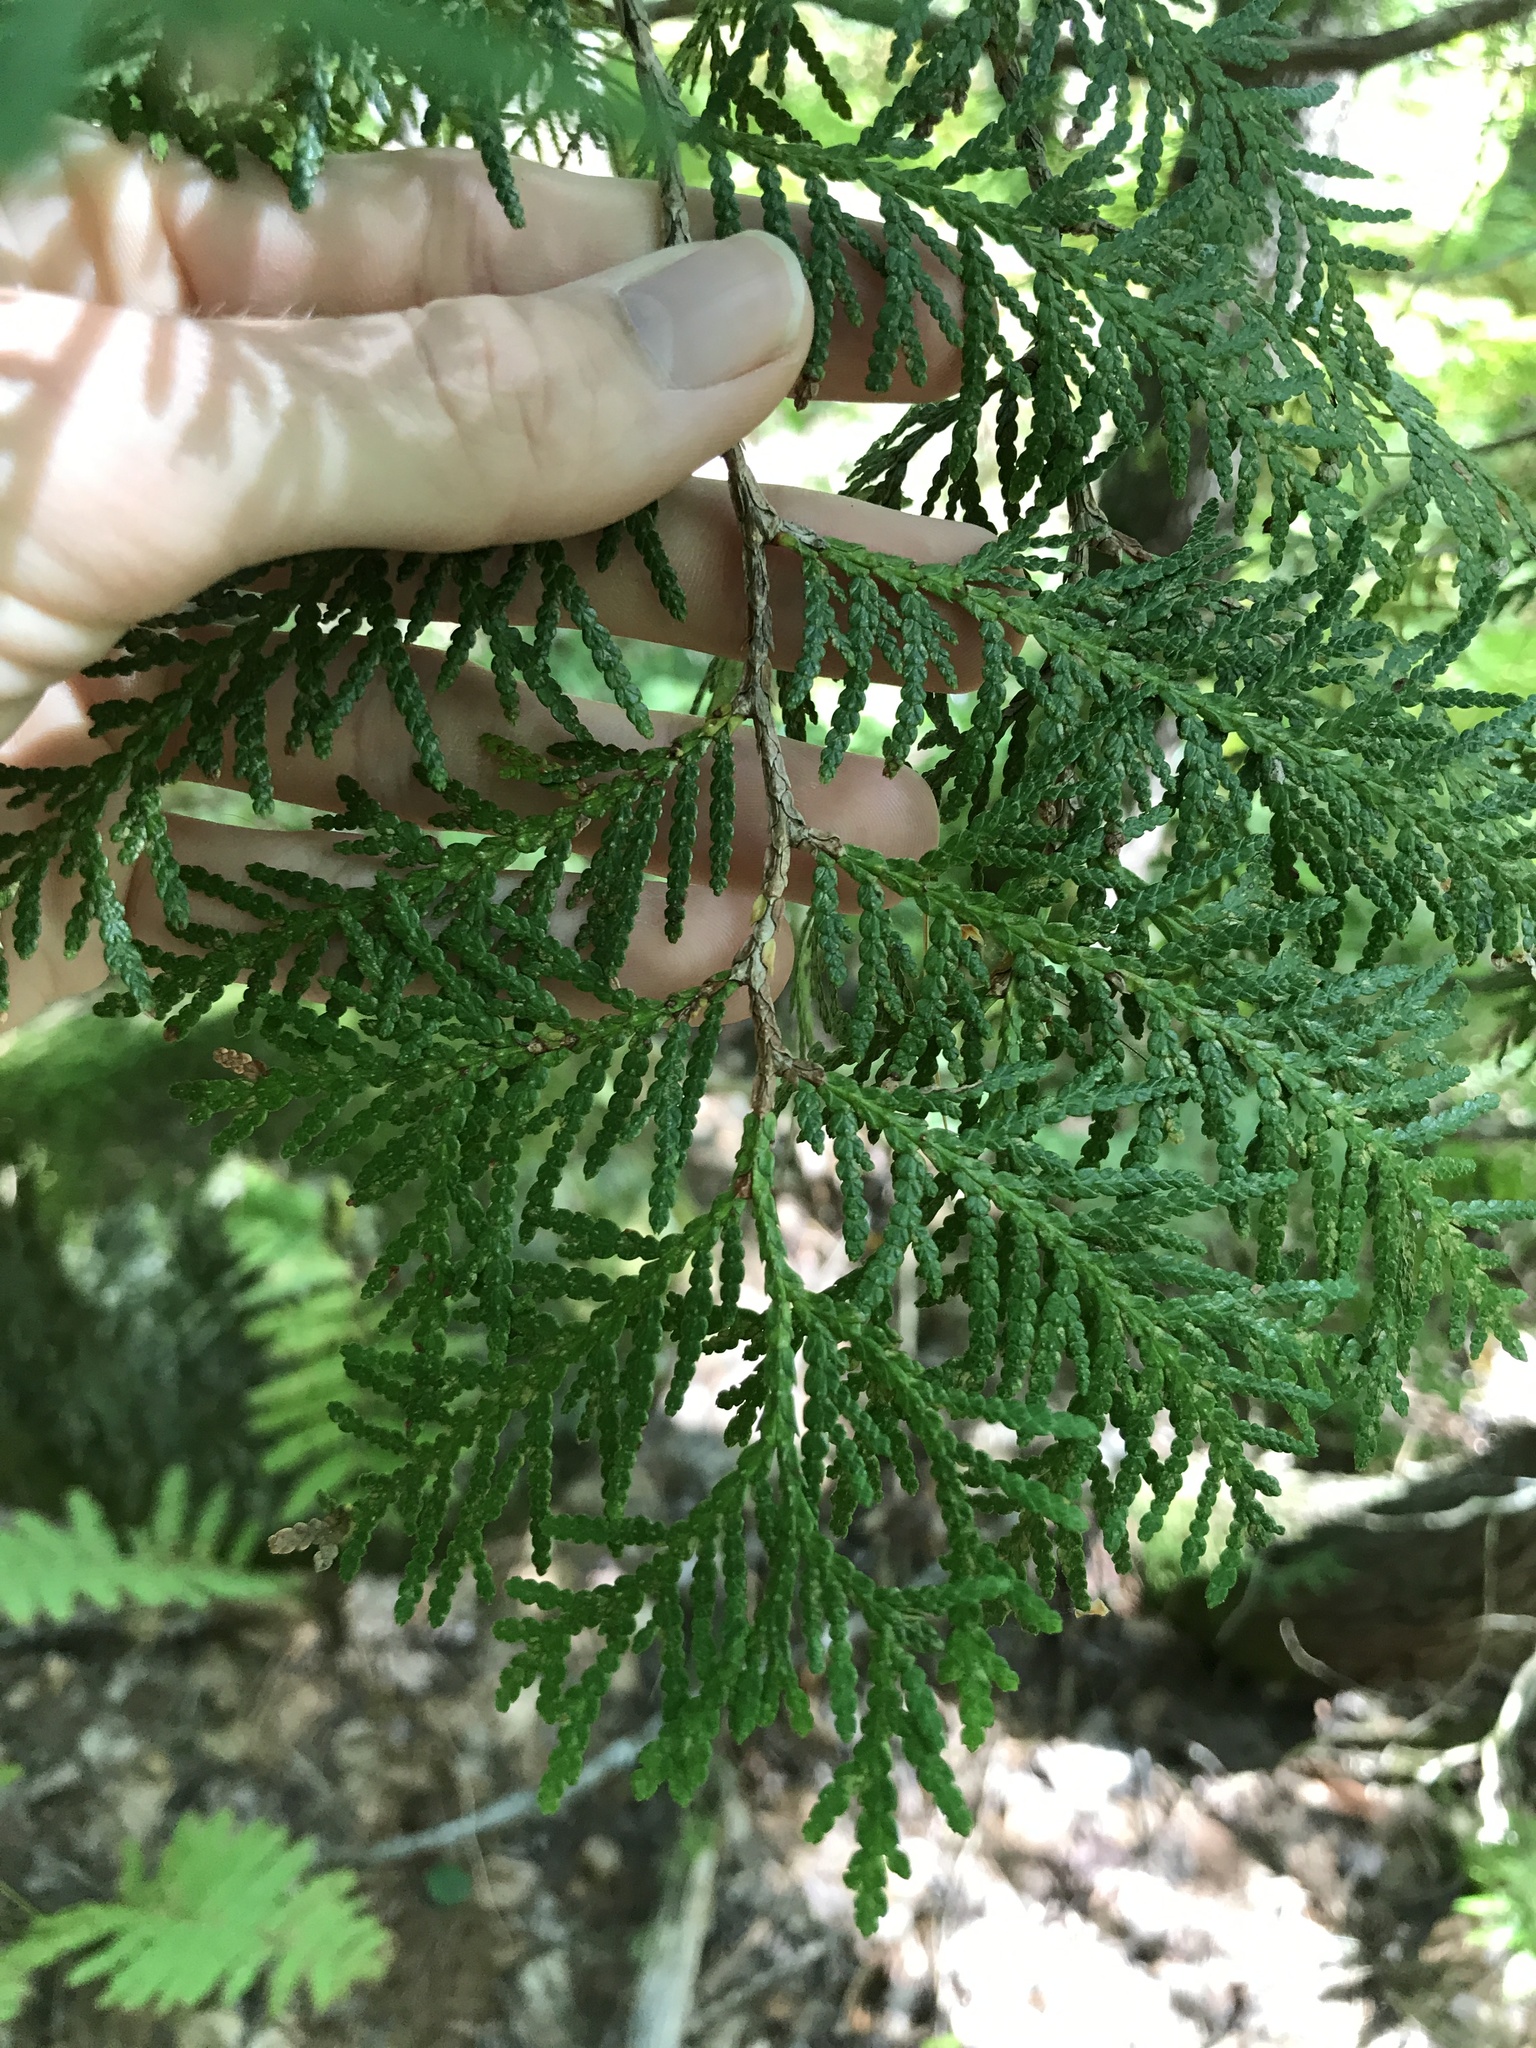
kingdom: Plantae
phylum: Tracheophyta
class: Pinopsida
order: Pinales
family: Cupressaceae
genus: Thuja
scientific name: Thuja occidentalis
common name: Northern white-cedar
